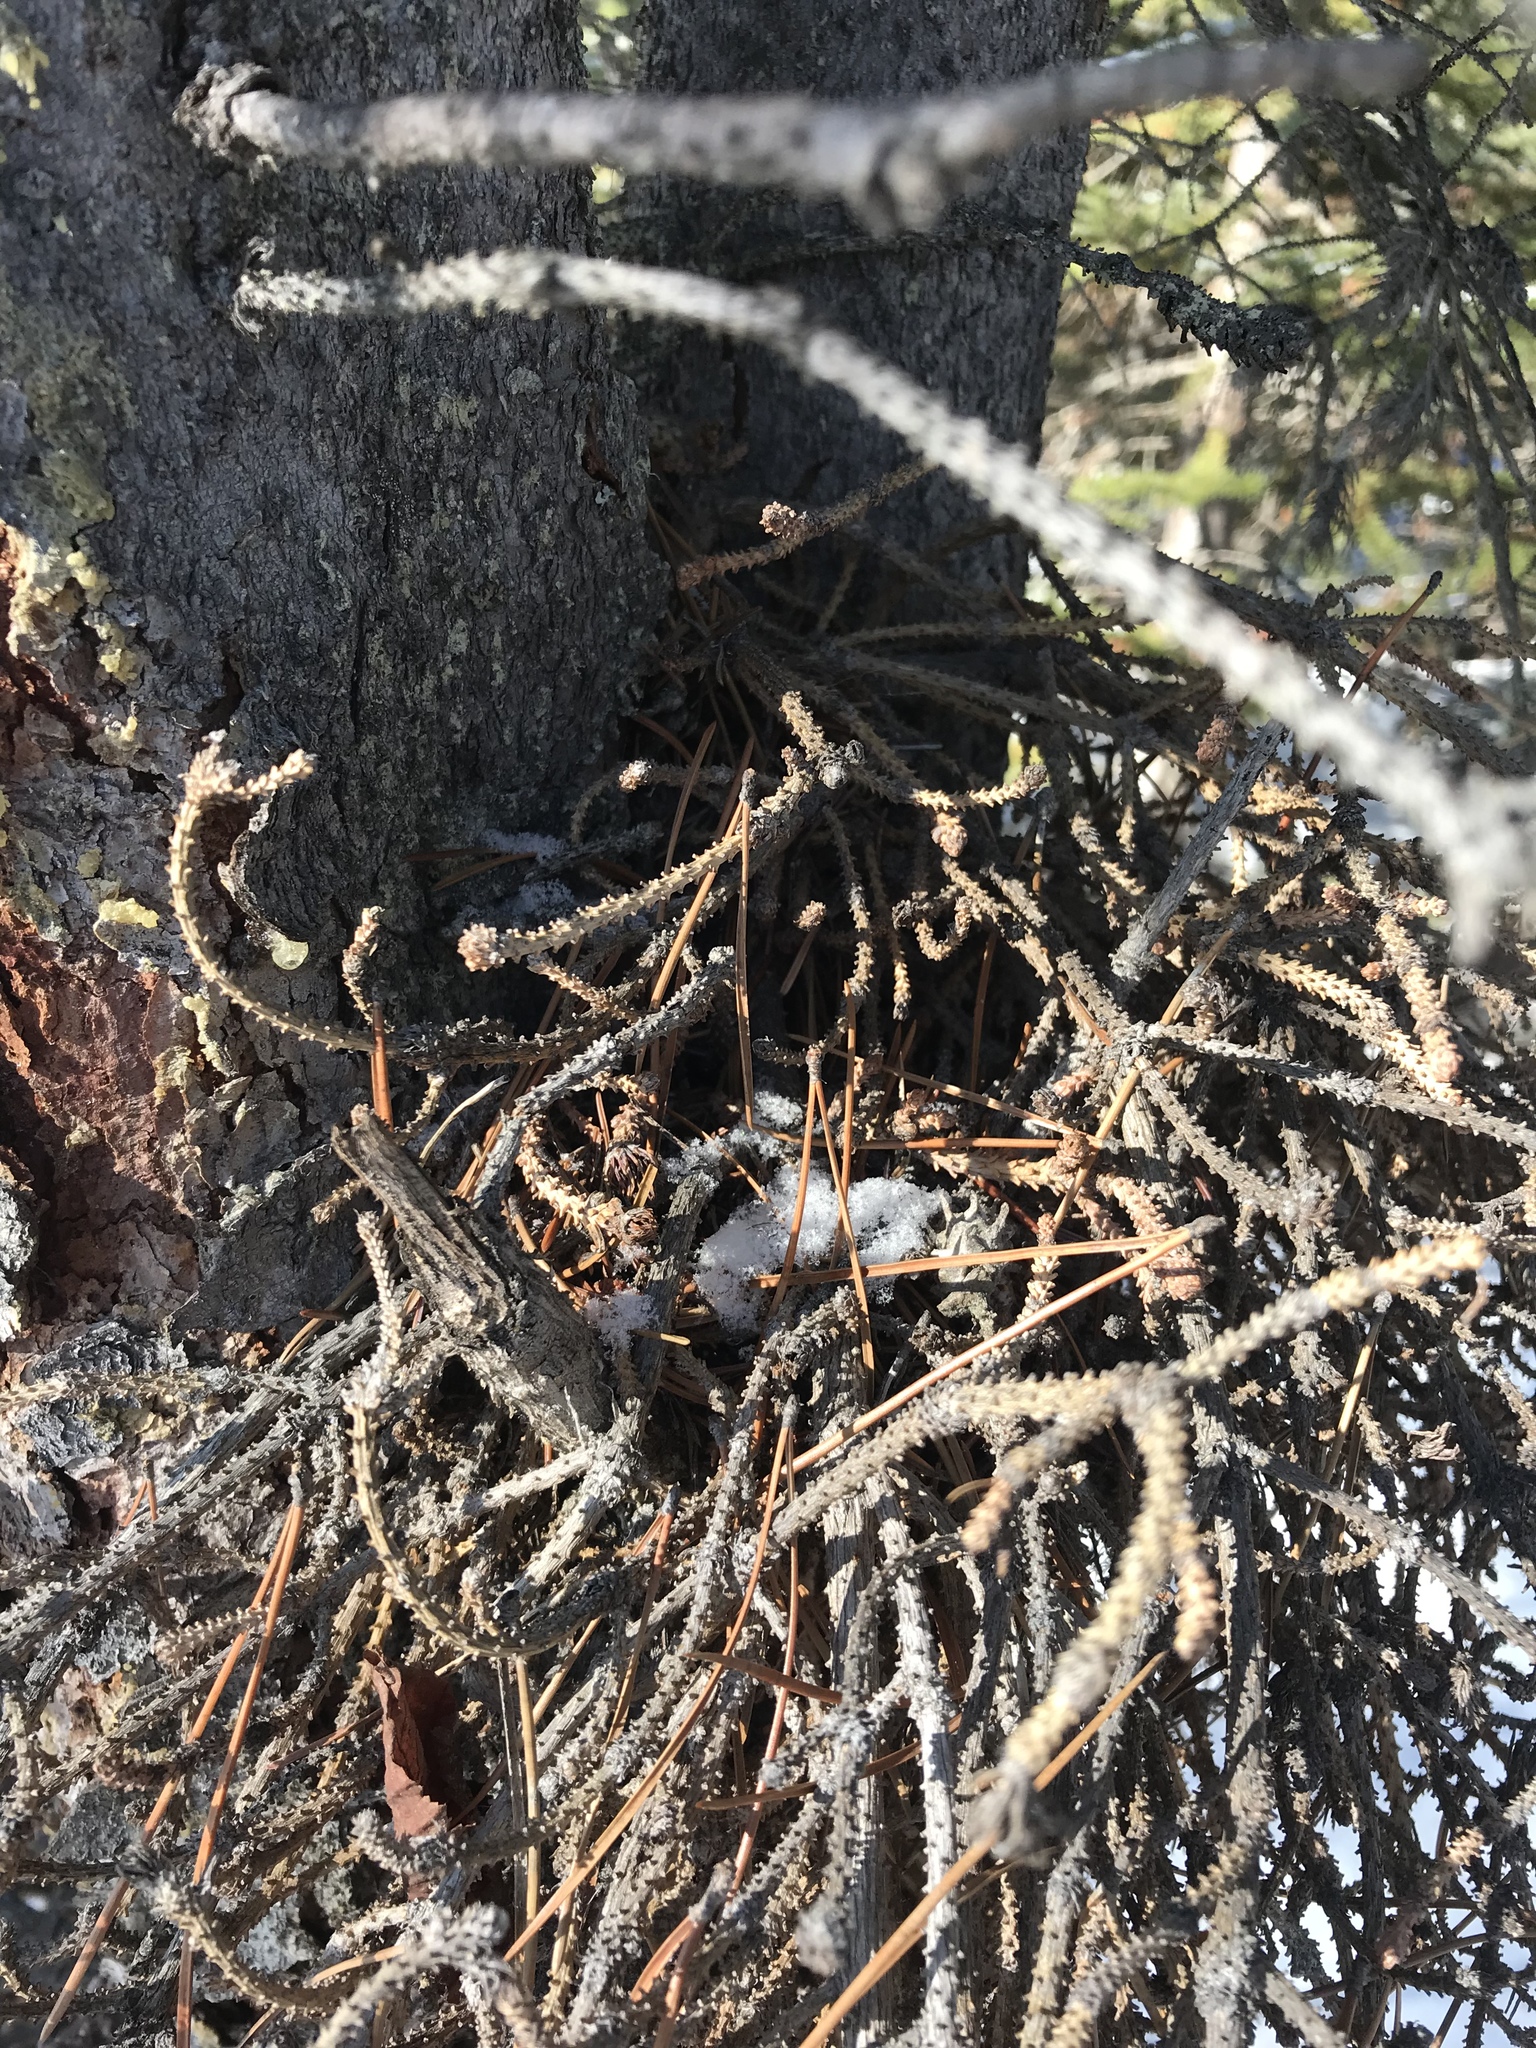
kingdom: Fungi
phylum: Basidiomycota
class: Pucciniomycetes
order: Pucciniales
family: Coleosporiaceae
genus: Chrysomyxa
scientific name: Chrysomyxa arctostaphyli
